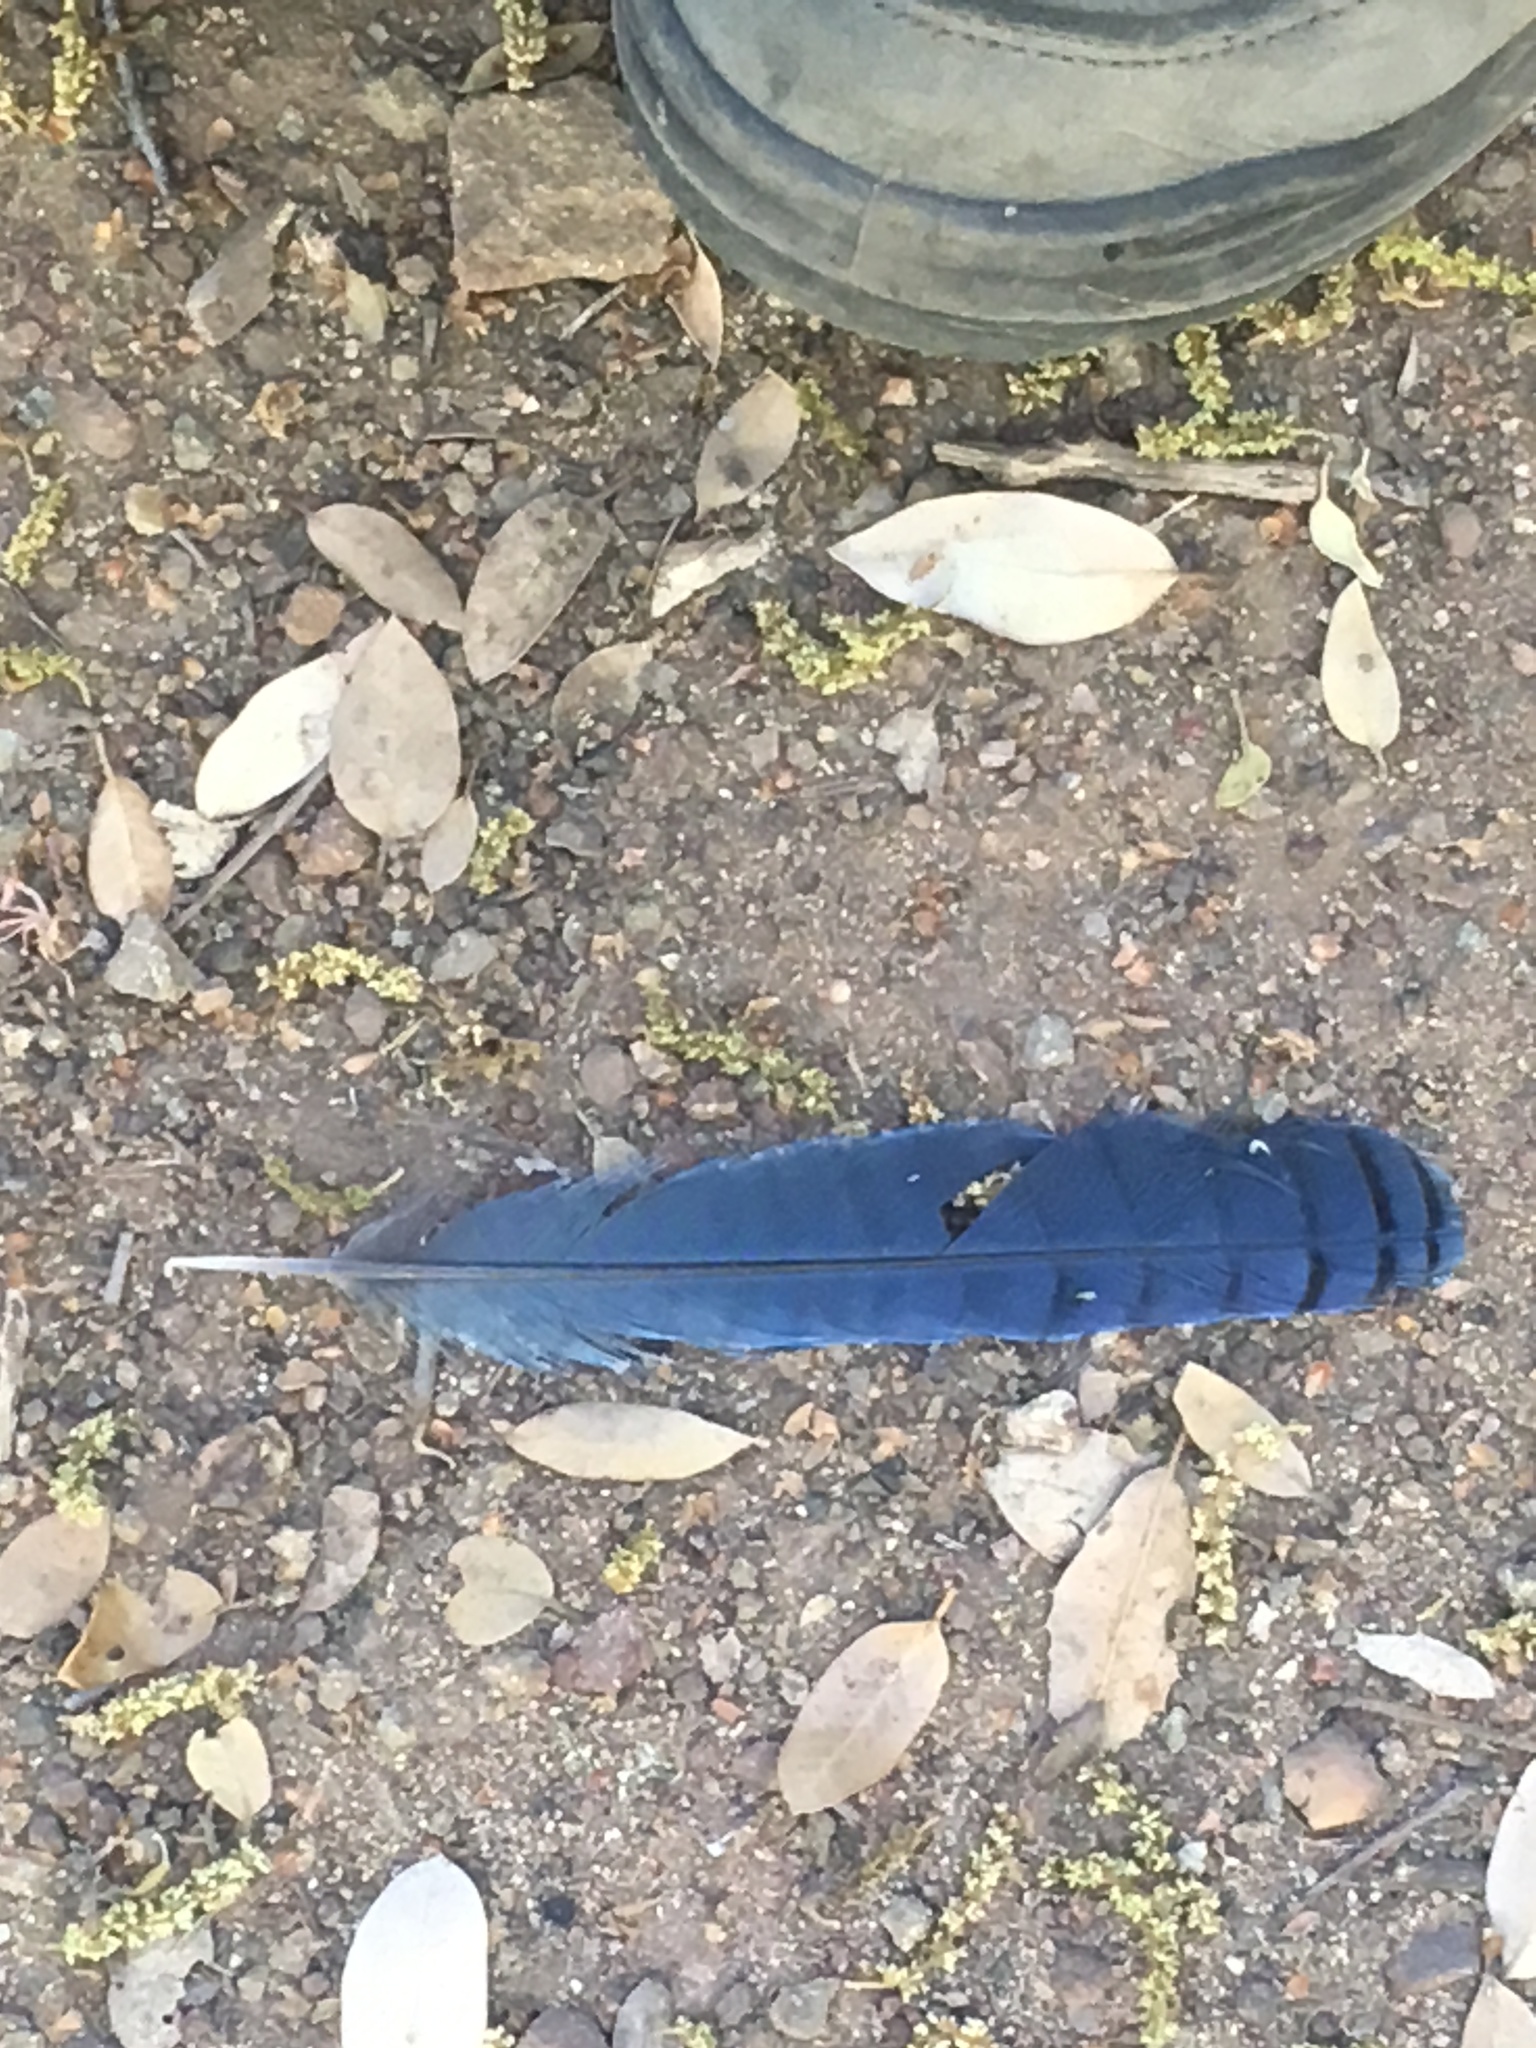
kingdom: Animalia
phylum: Chordata
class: Aves
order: Passeriformes
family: Corvidae
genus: Cyanocitta
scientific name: Cyanocitta stelleri
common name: Steller's jay
